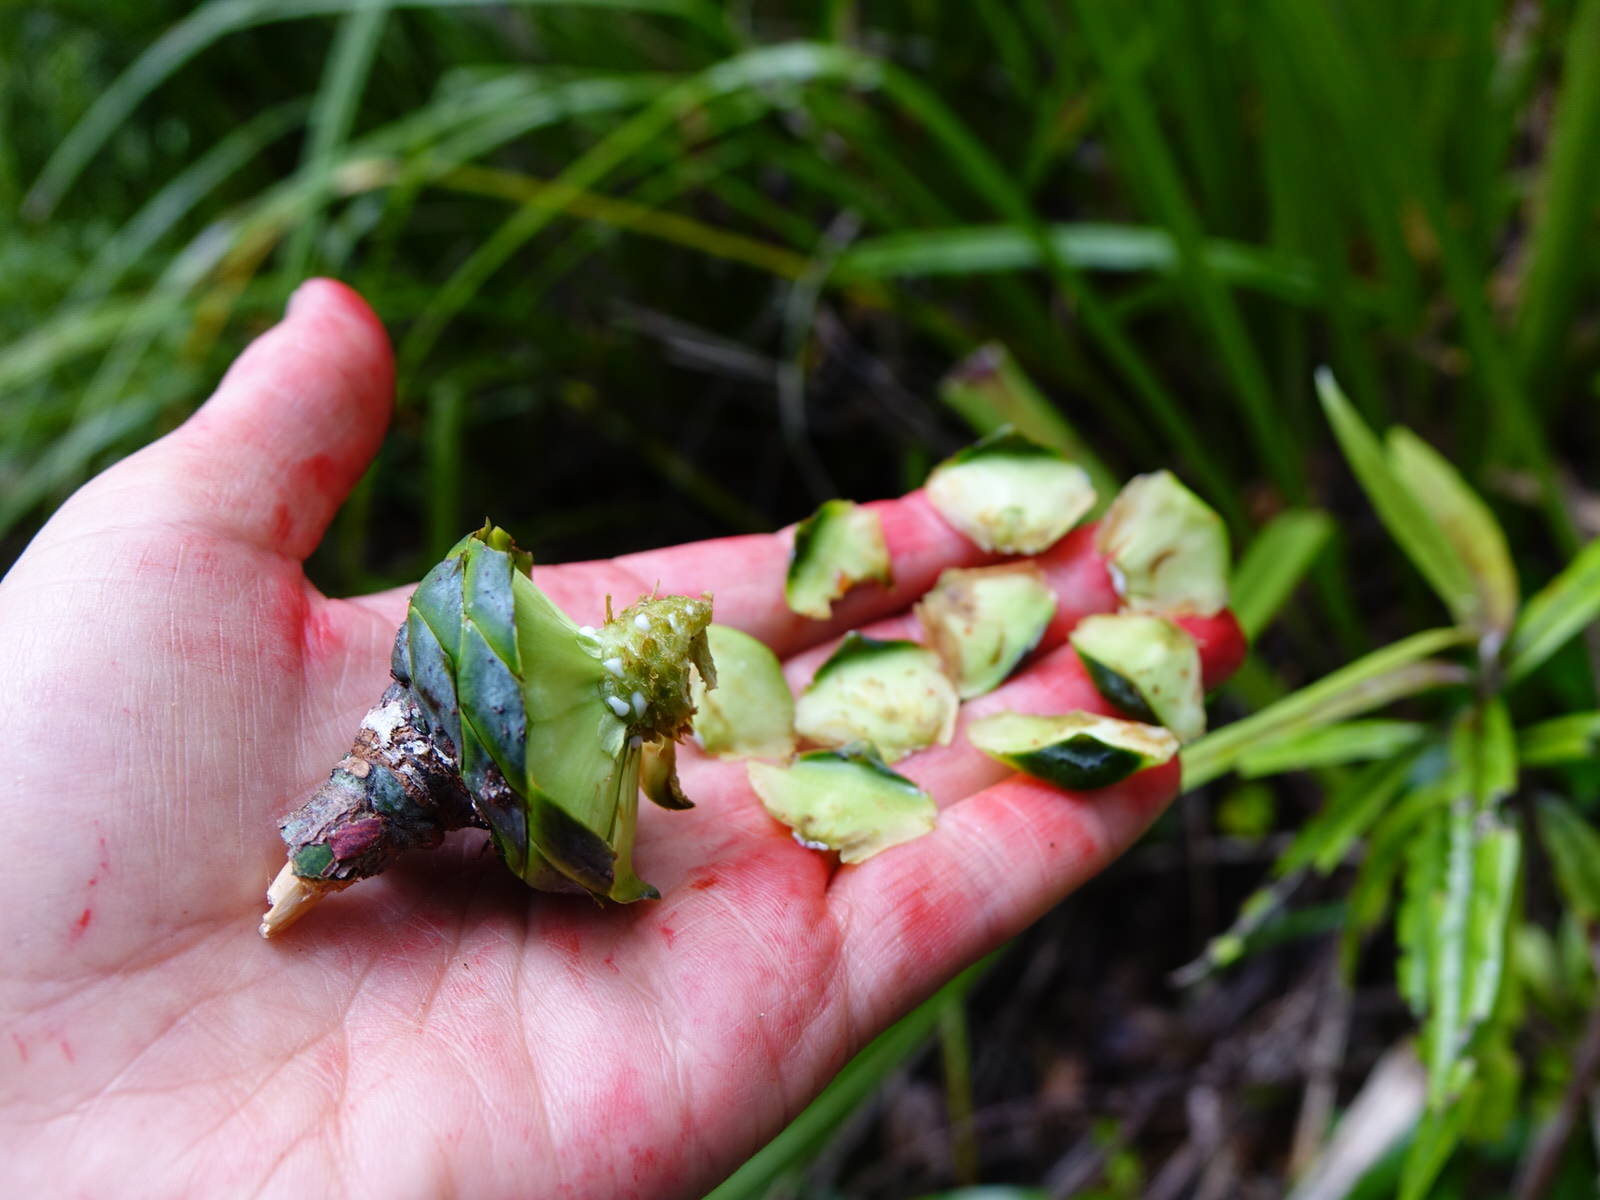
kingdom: Plantae
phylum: Tracheophyta
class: Pinopsida
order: Pinales
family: Araucariaceae
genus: Agathis
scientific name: Agathis australis
